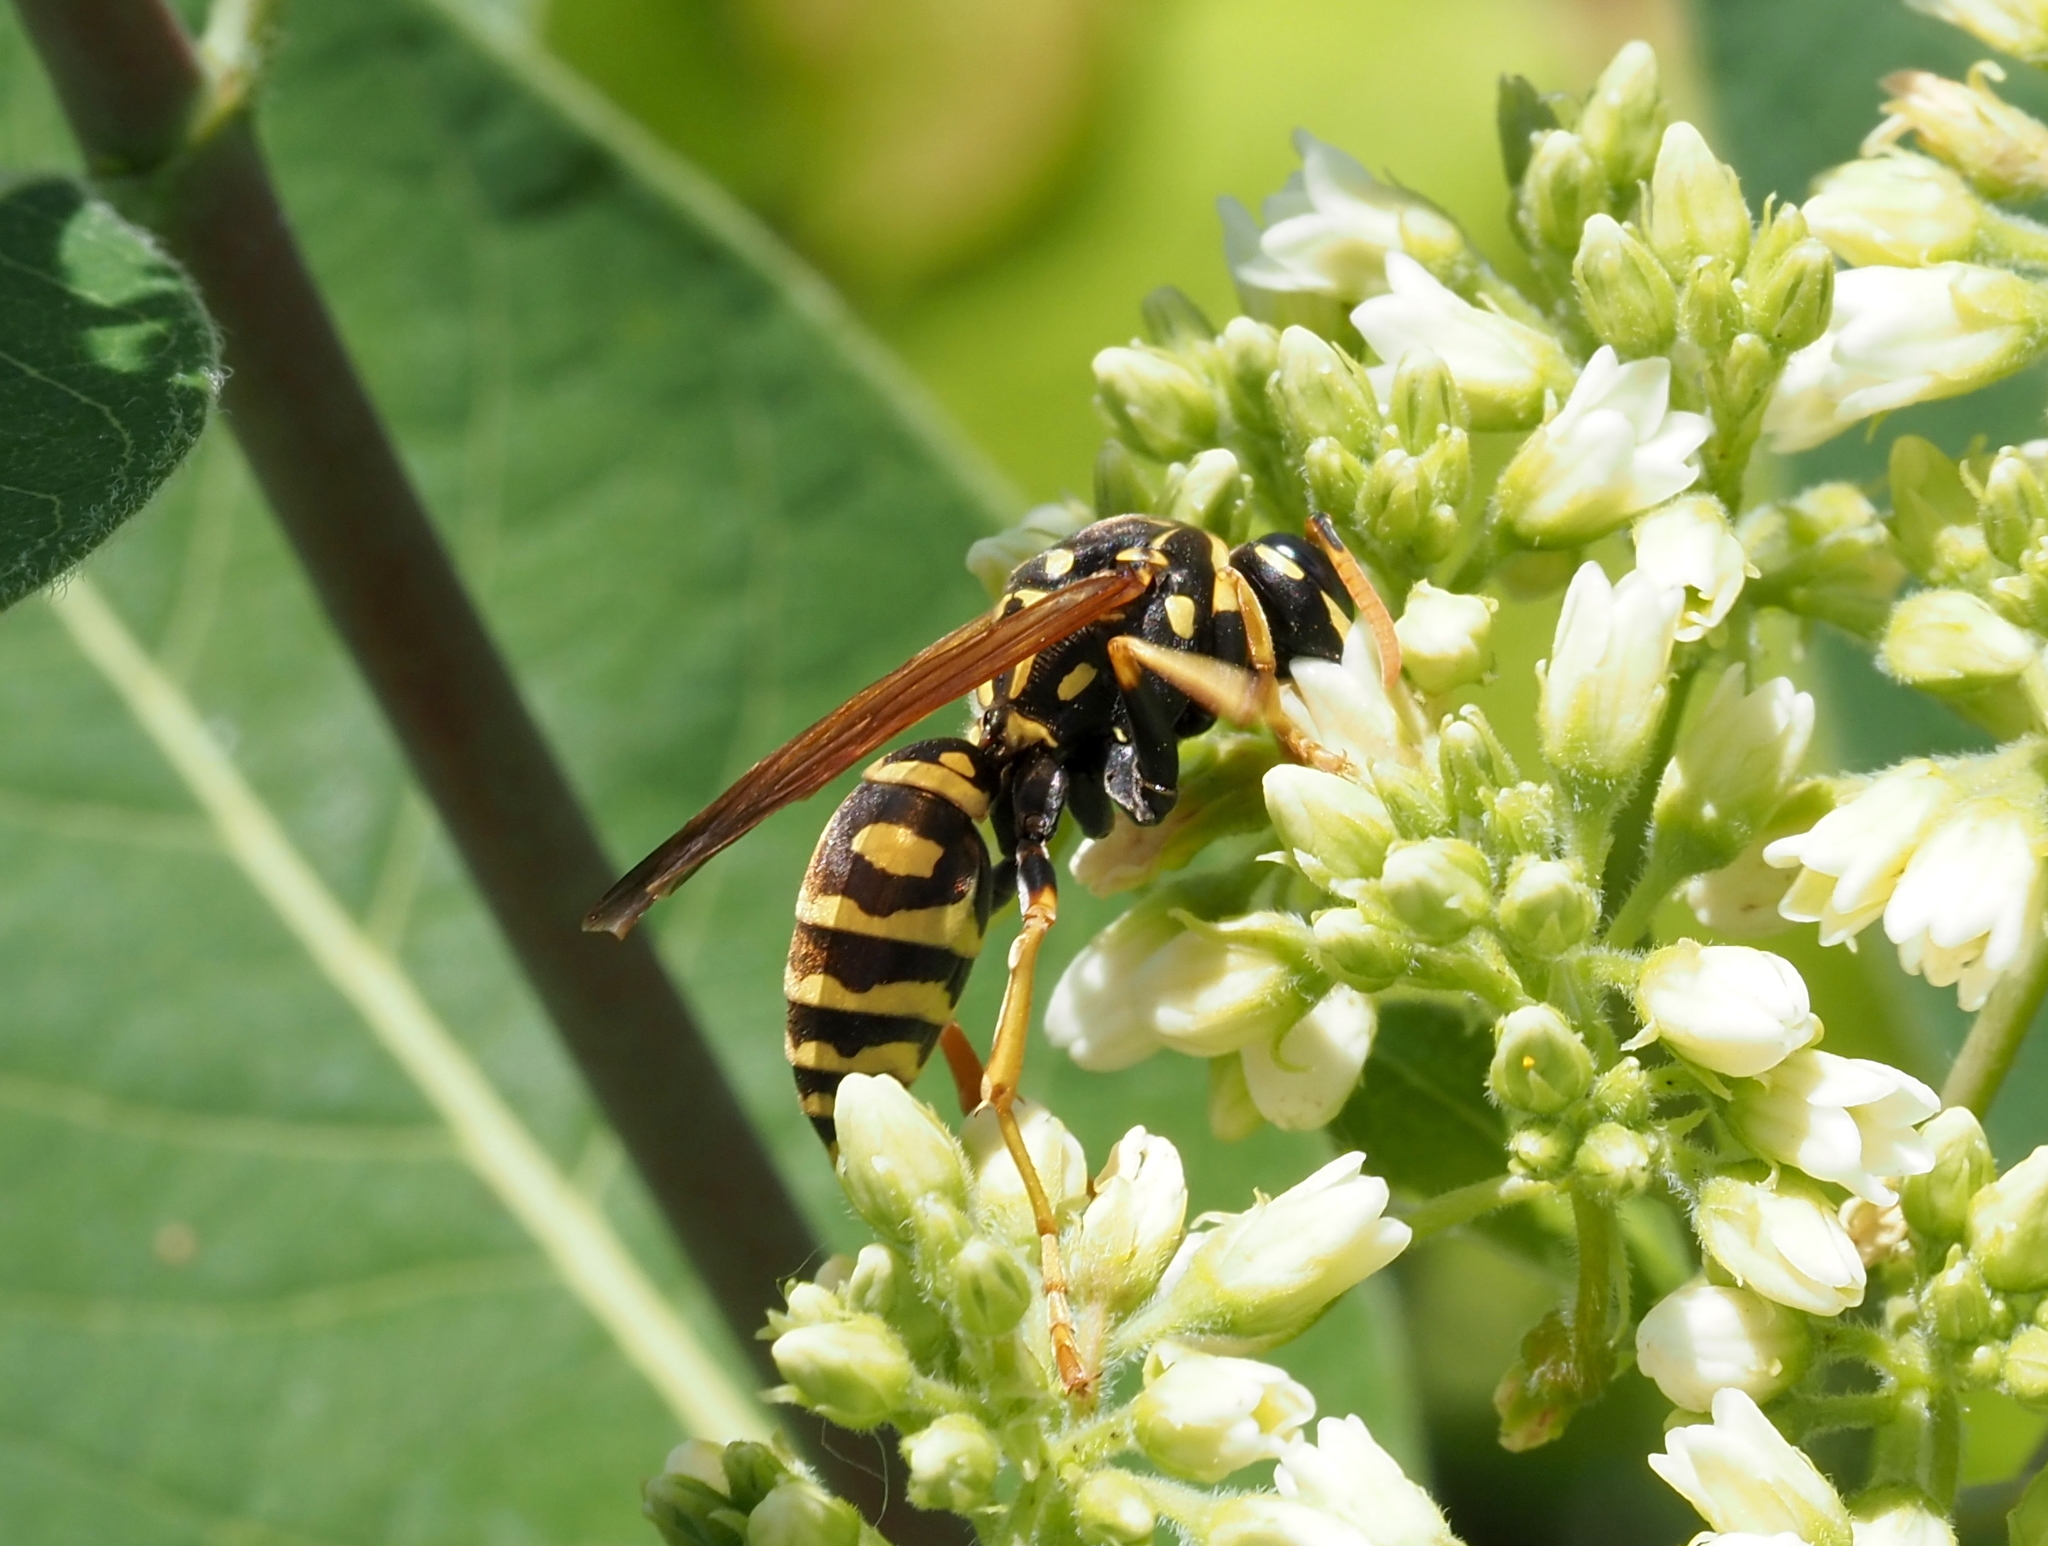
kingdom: Animalia
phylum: Arthropoda
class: Insecta
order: Hymenoptera
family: Eumenidae
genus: Polistes
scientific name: Polistes dominula
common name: Paper wasp
